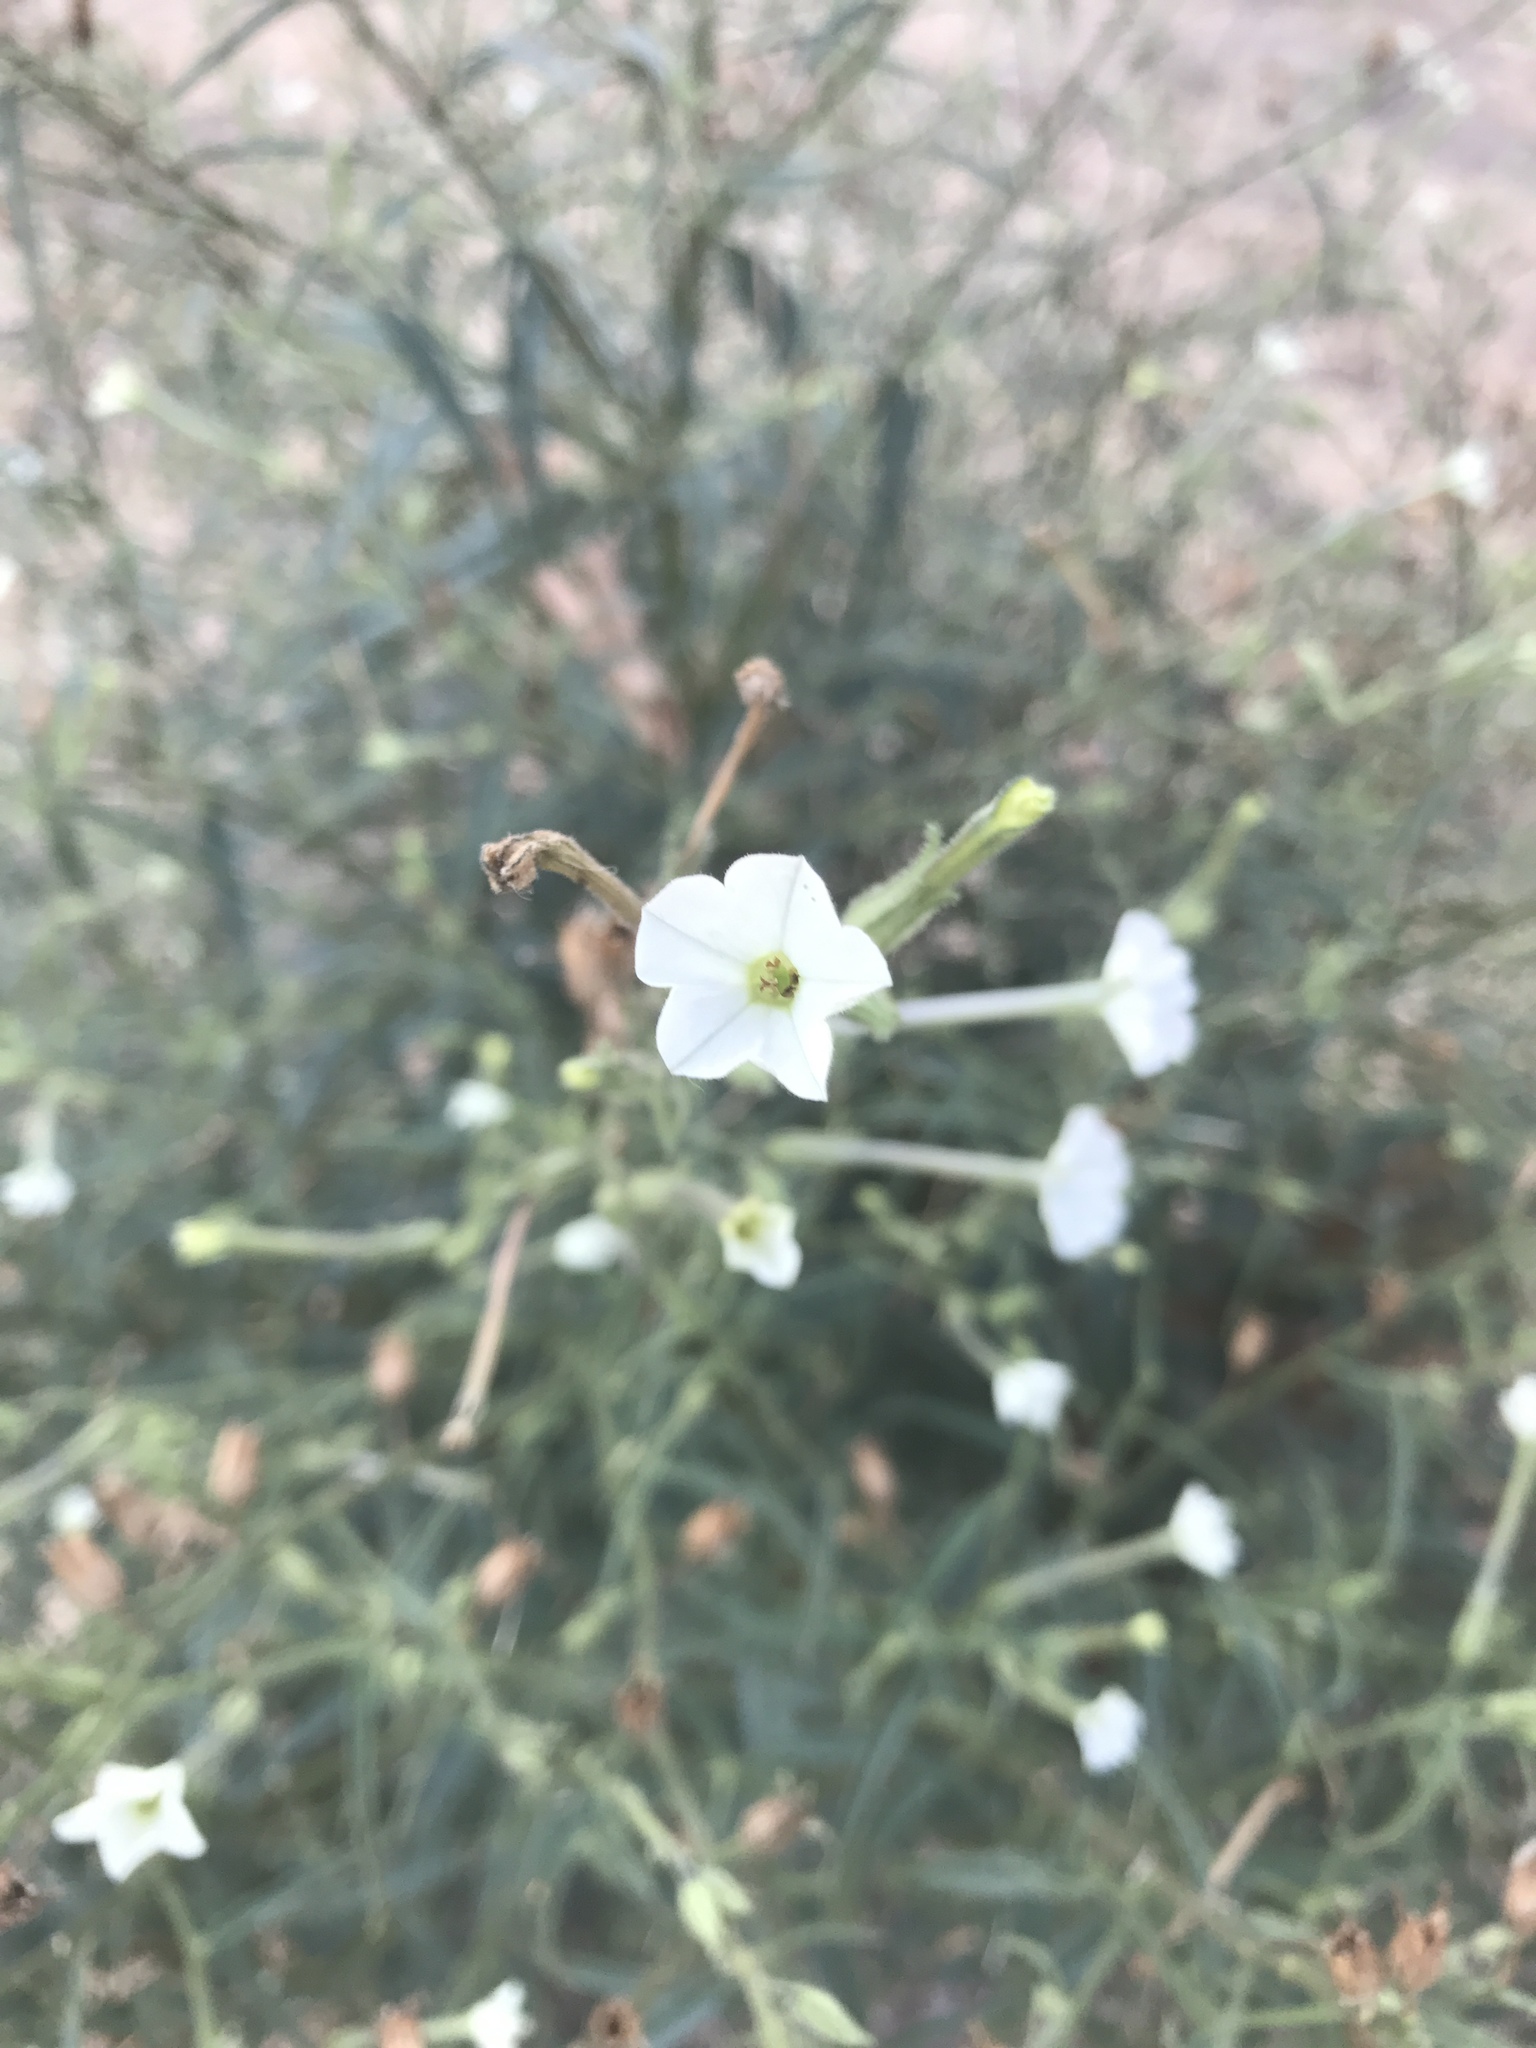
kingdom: Plantae
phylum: Tracheophyta
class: Magnoliopsida
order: Solanales
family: Solanaceae
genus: Nicotiana
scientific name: Nicotiana acuminata
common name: Manyflower tobacco
